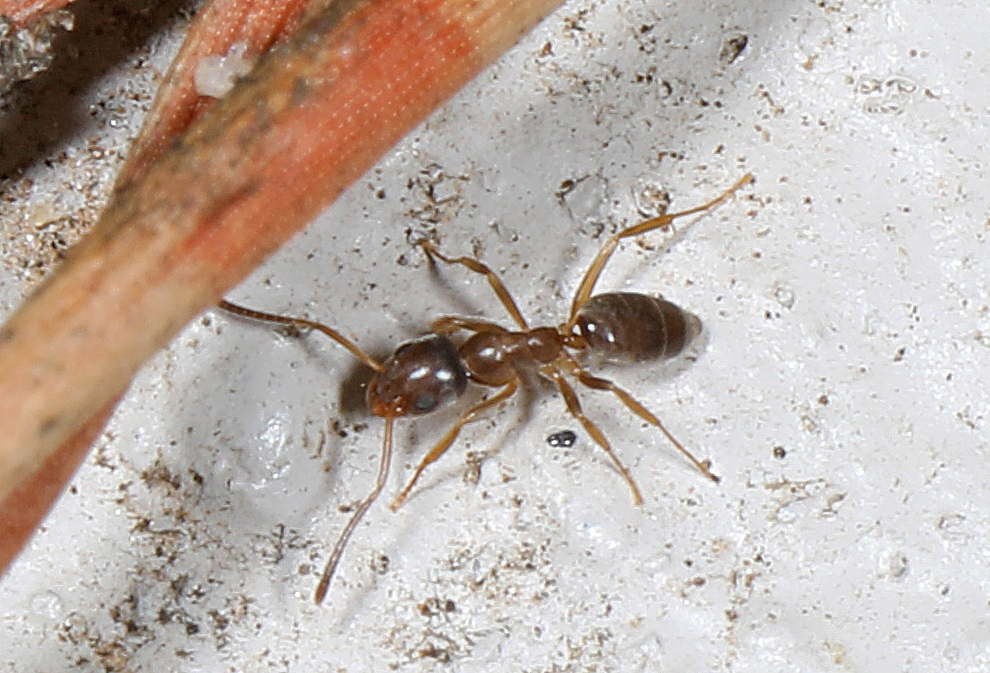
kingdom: Animalia
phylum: Arthropoda
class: Insecta
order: Hymenoptera
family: Formicidae
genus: Tapinoma
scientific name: Tapinoma sessile
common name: Odorous house ant
